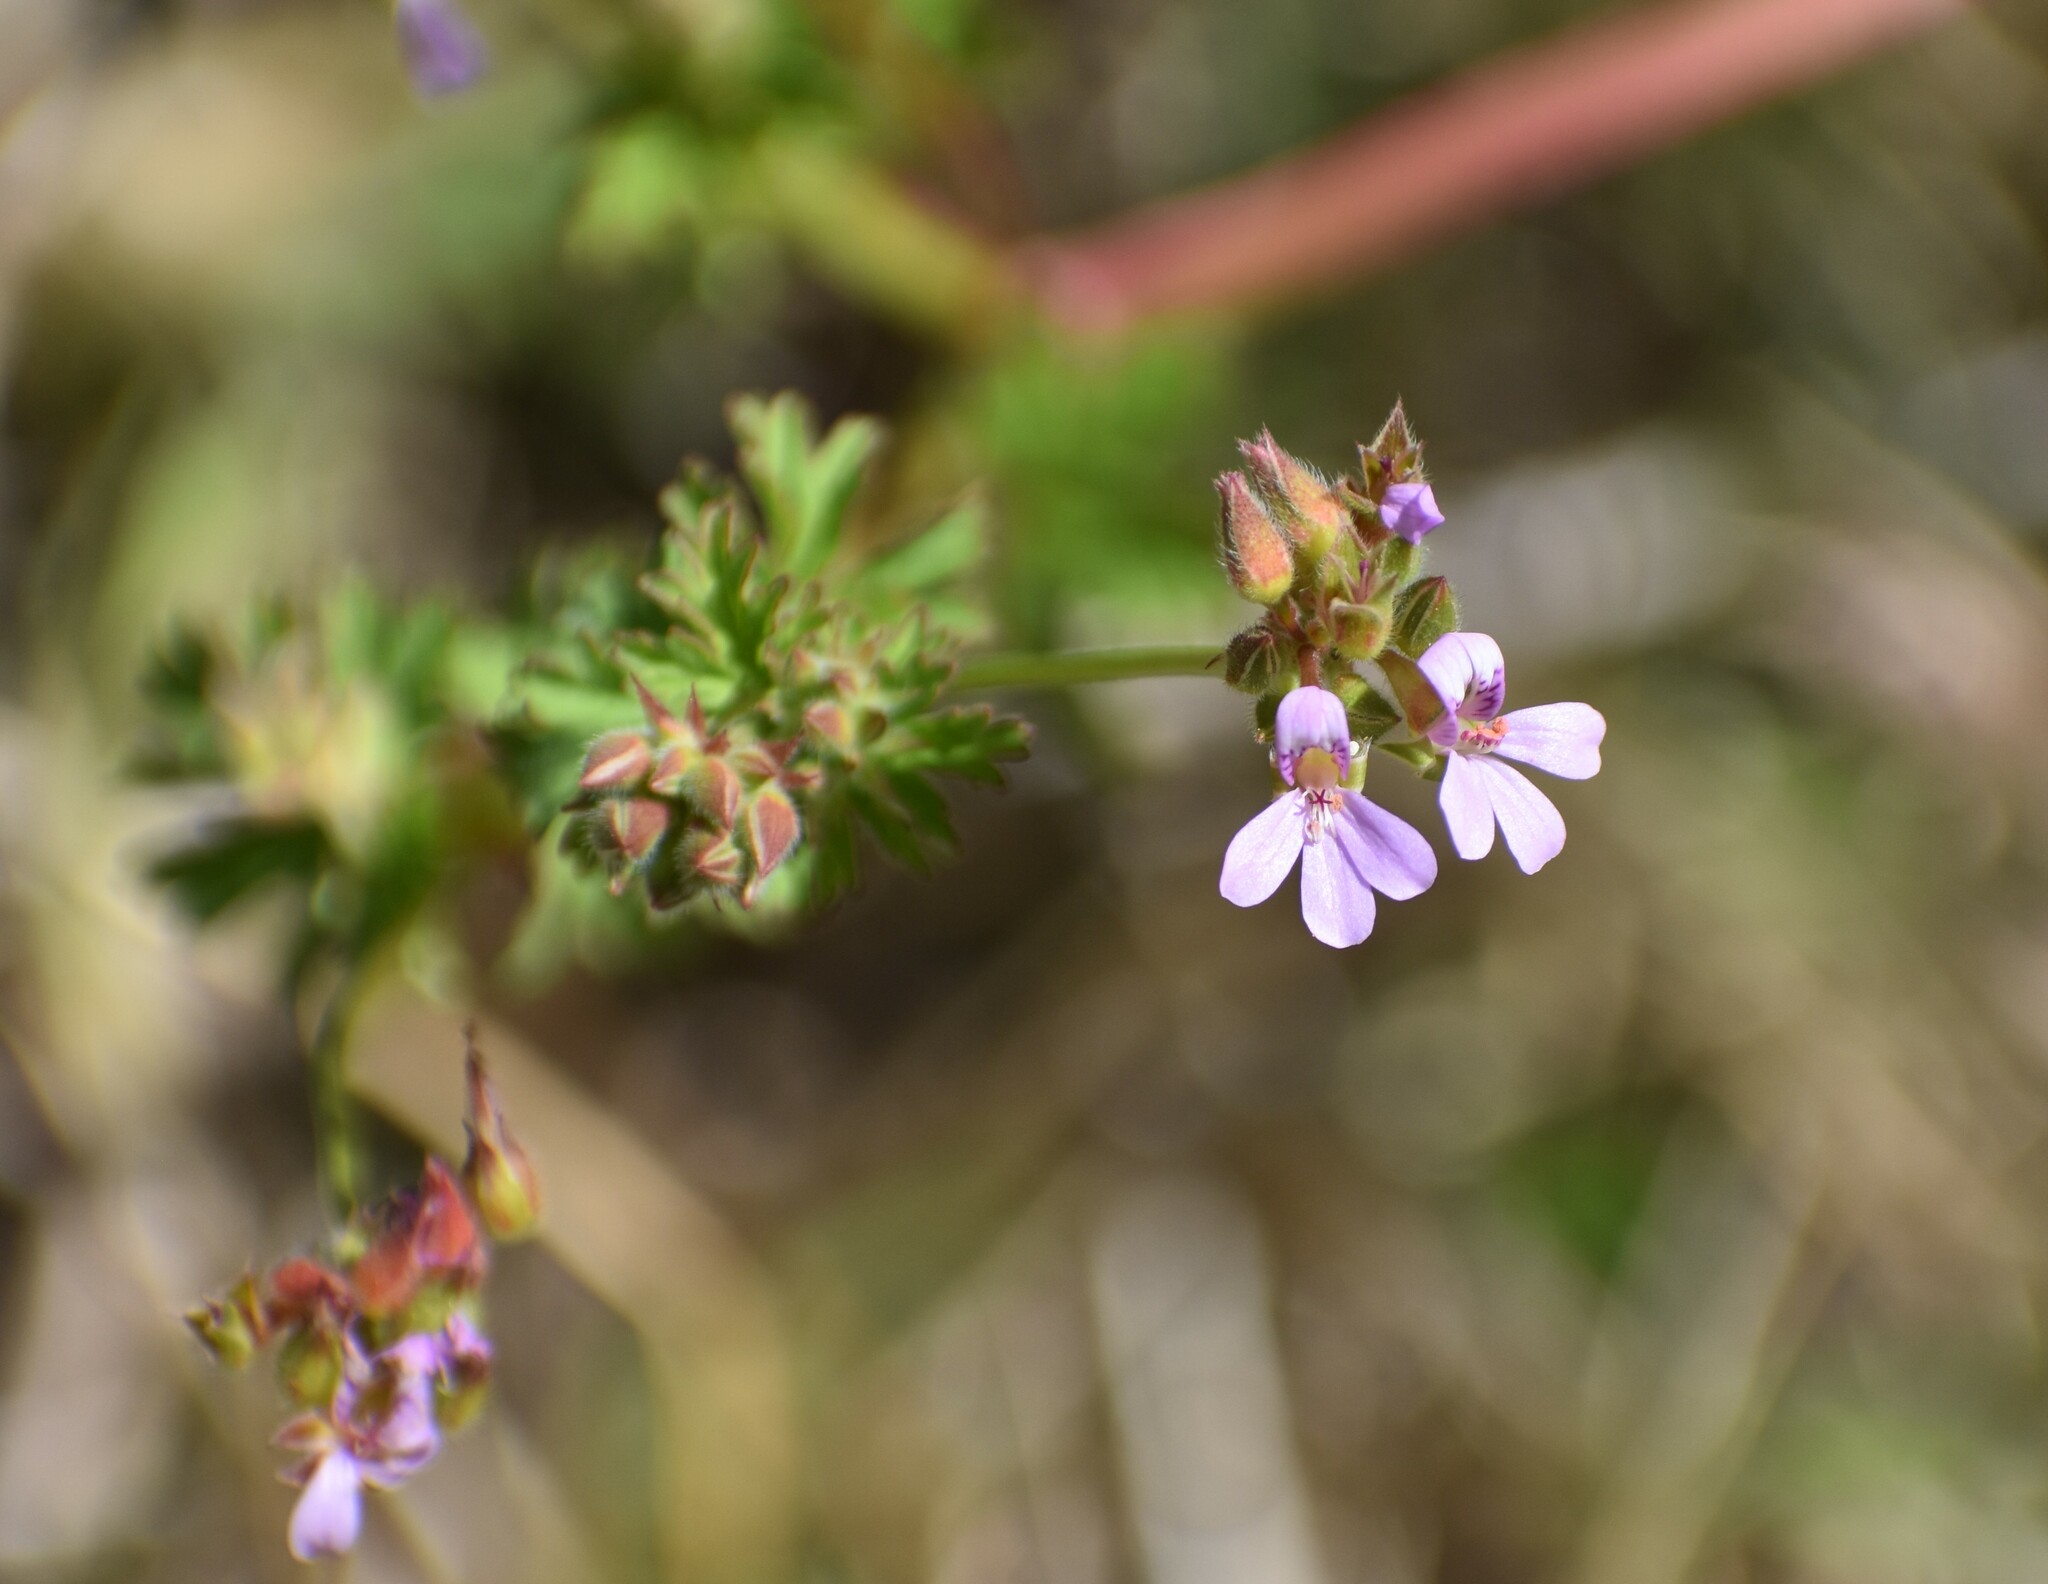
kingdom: Plantae
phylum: Tracheophyta
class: Magnoliopsida
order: Geraniales
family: Geraniaceae
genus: Pelargonium
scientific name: Pelargonium grossularioides
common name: Gooseberry geranium
